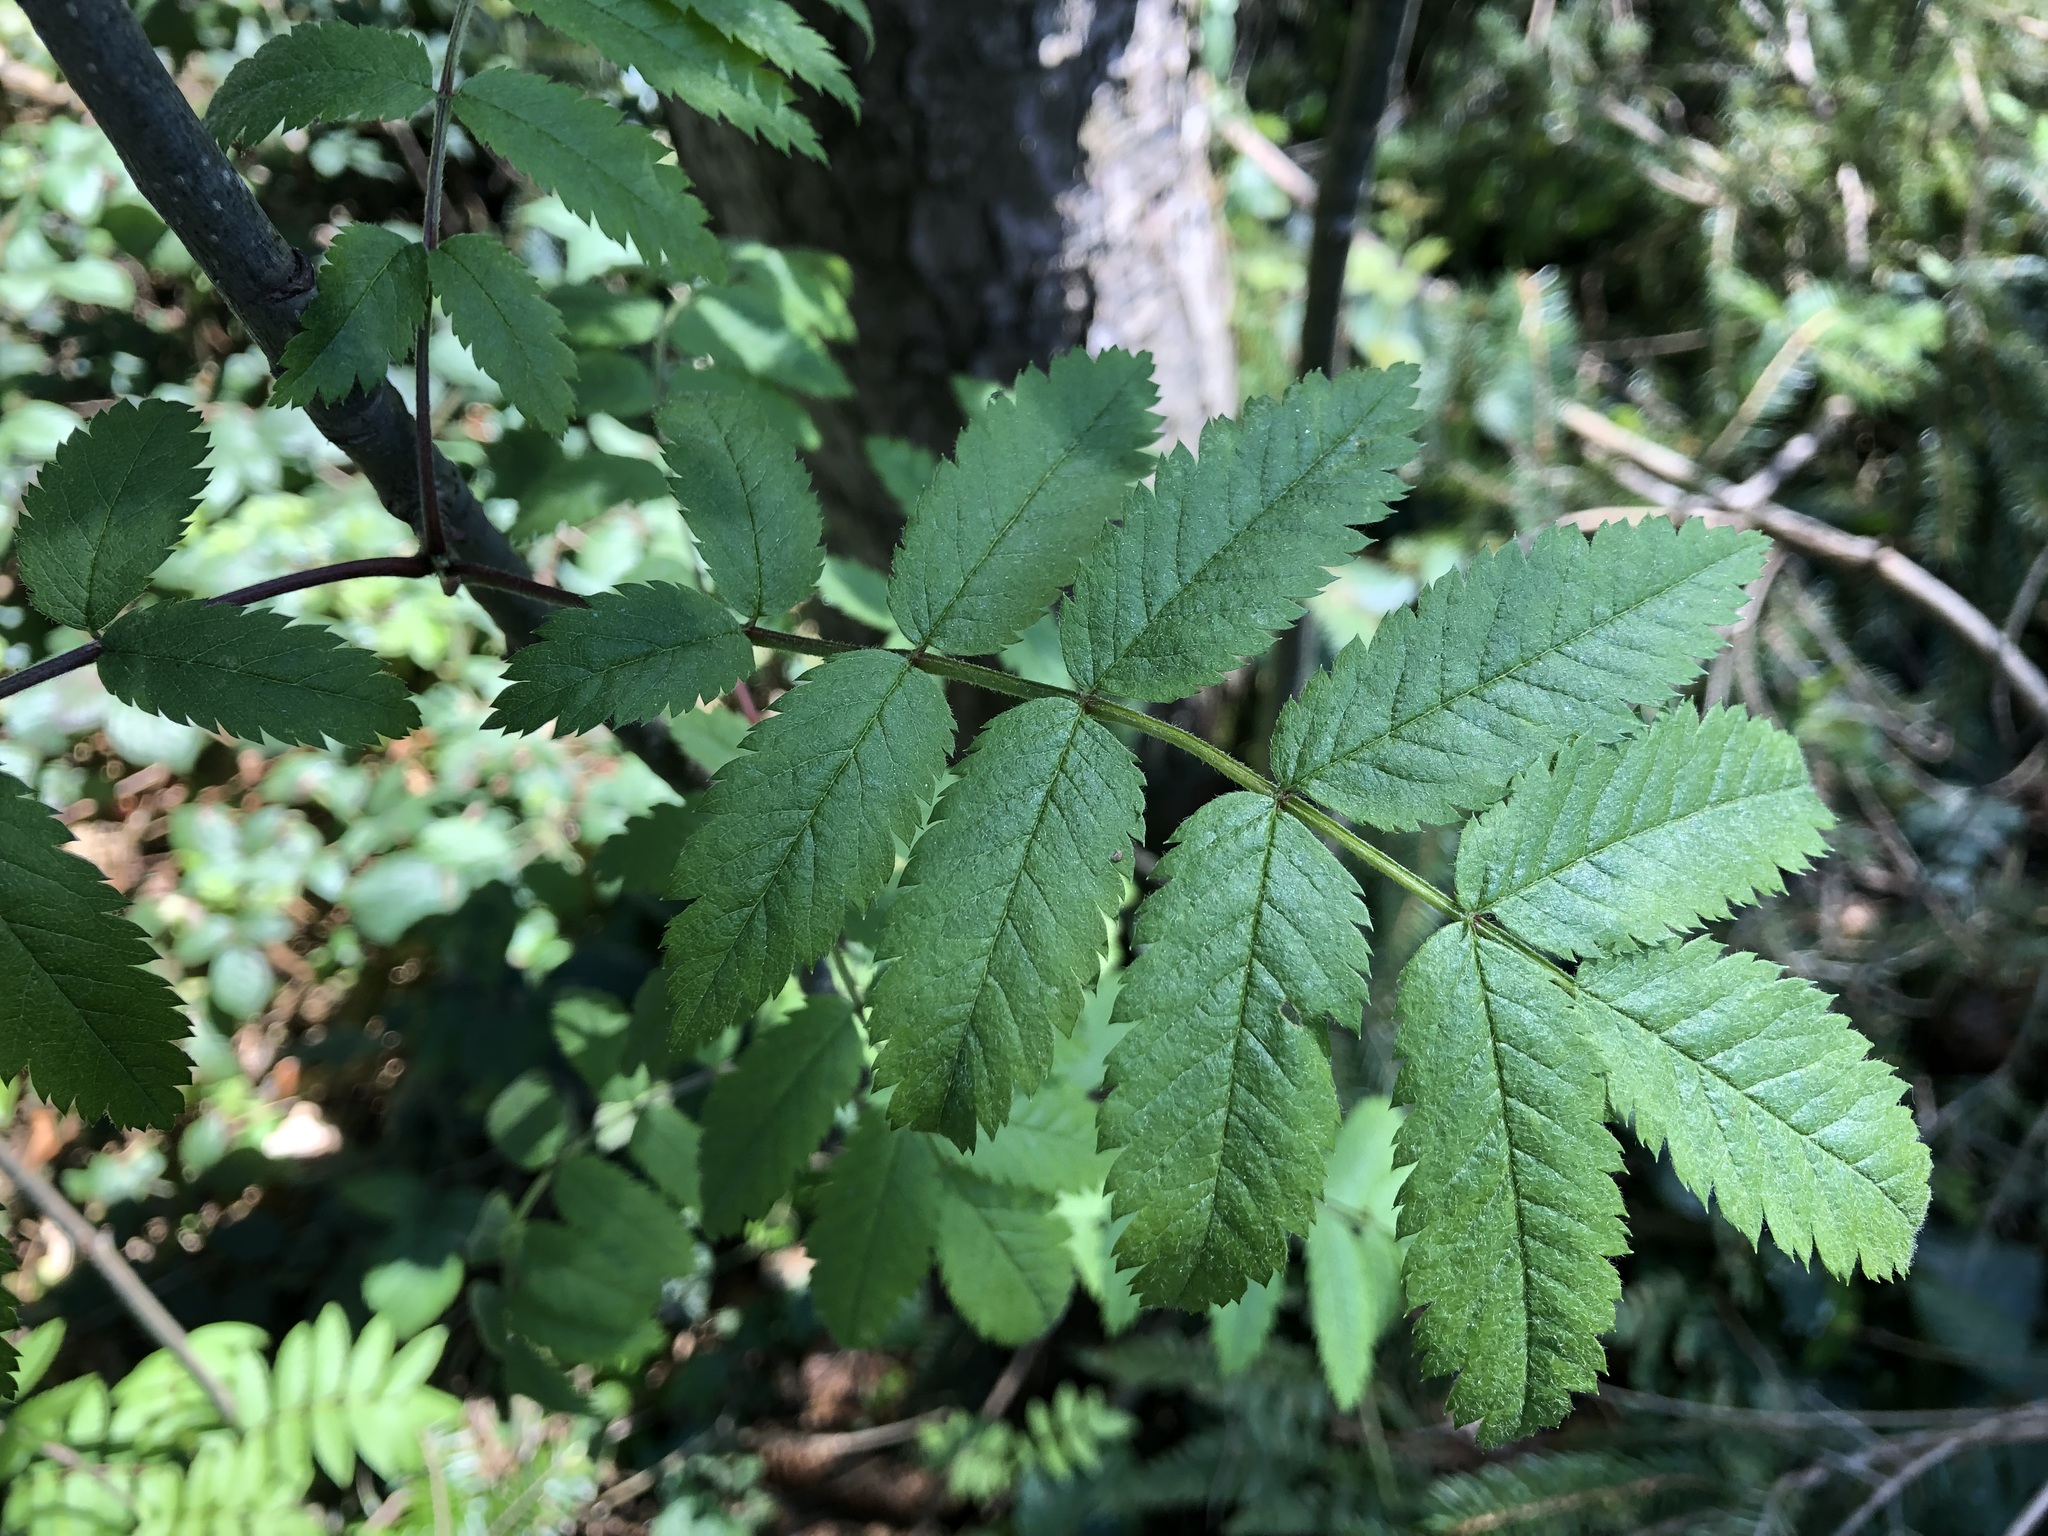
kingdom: Plantae
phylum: Tracheophyta
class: Magnoliopsida
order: Rosales
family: Rosaceae
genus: Sorbus
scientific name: Sorbus aucuparia
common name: Rowan
